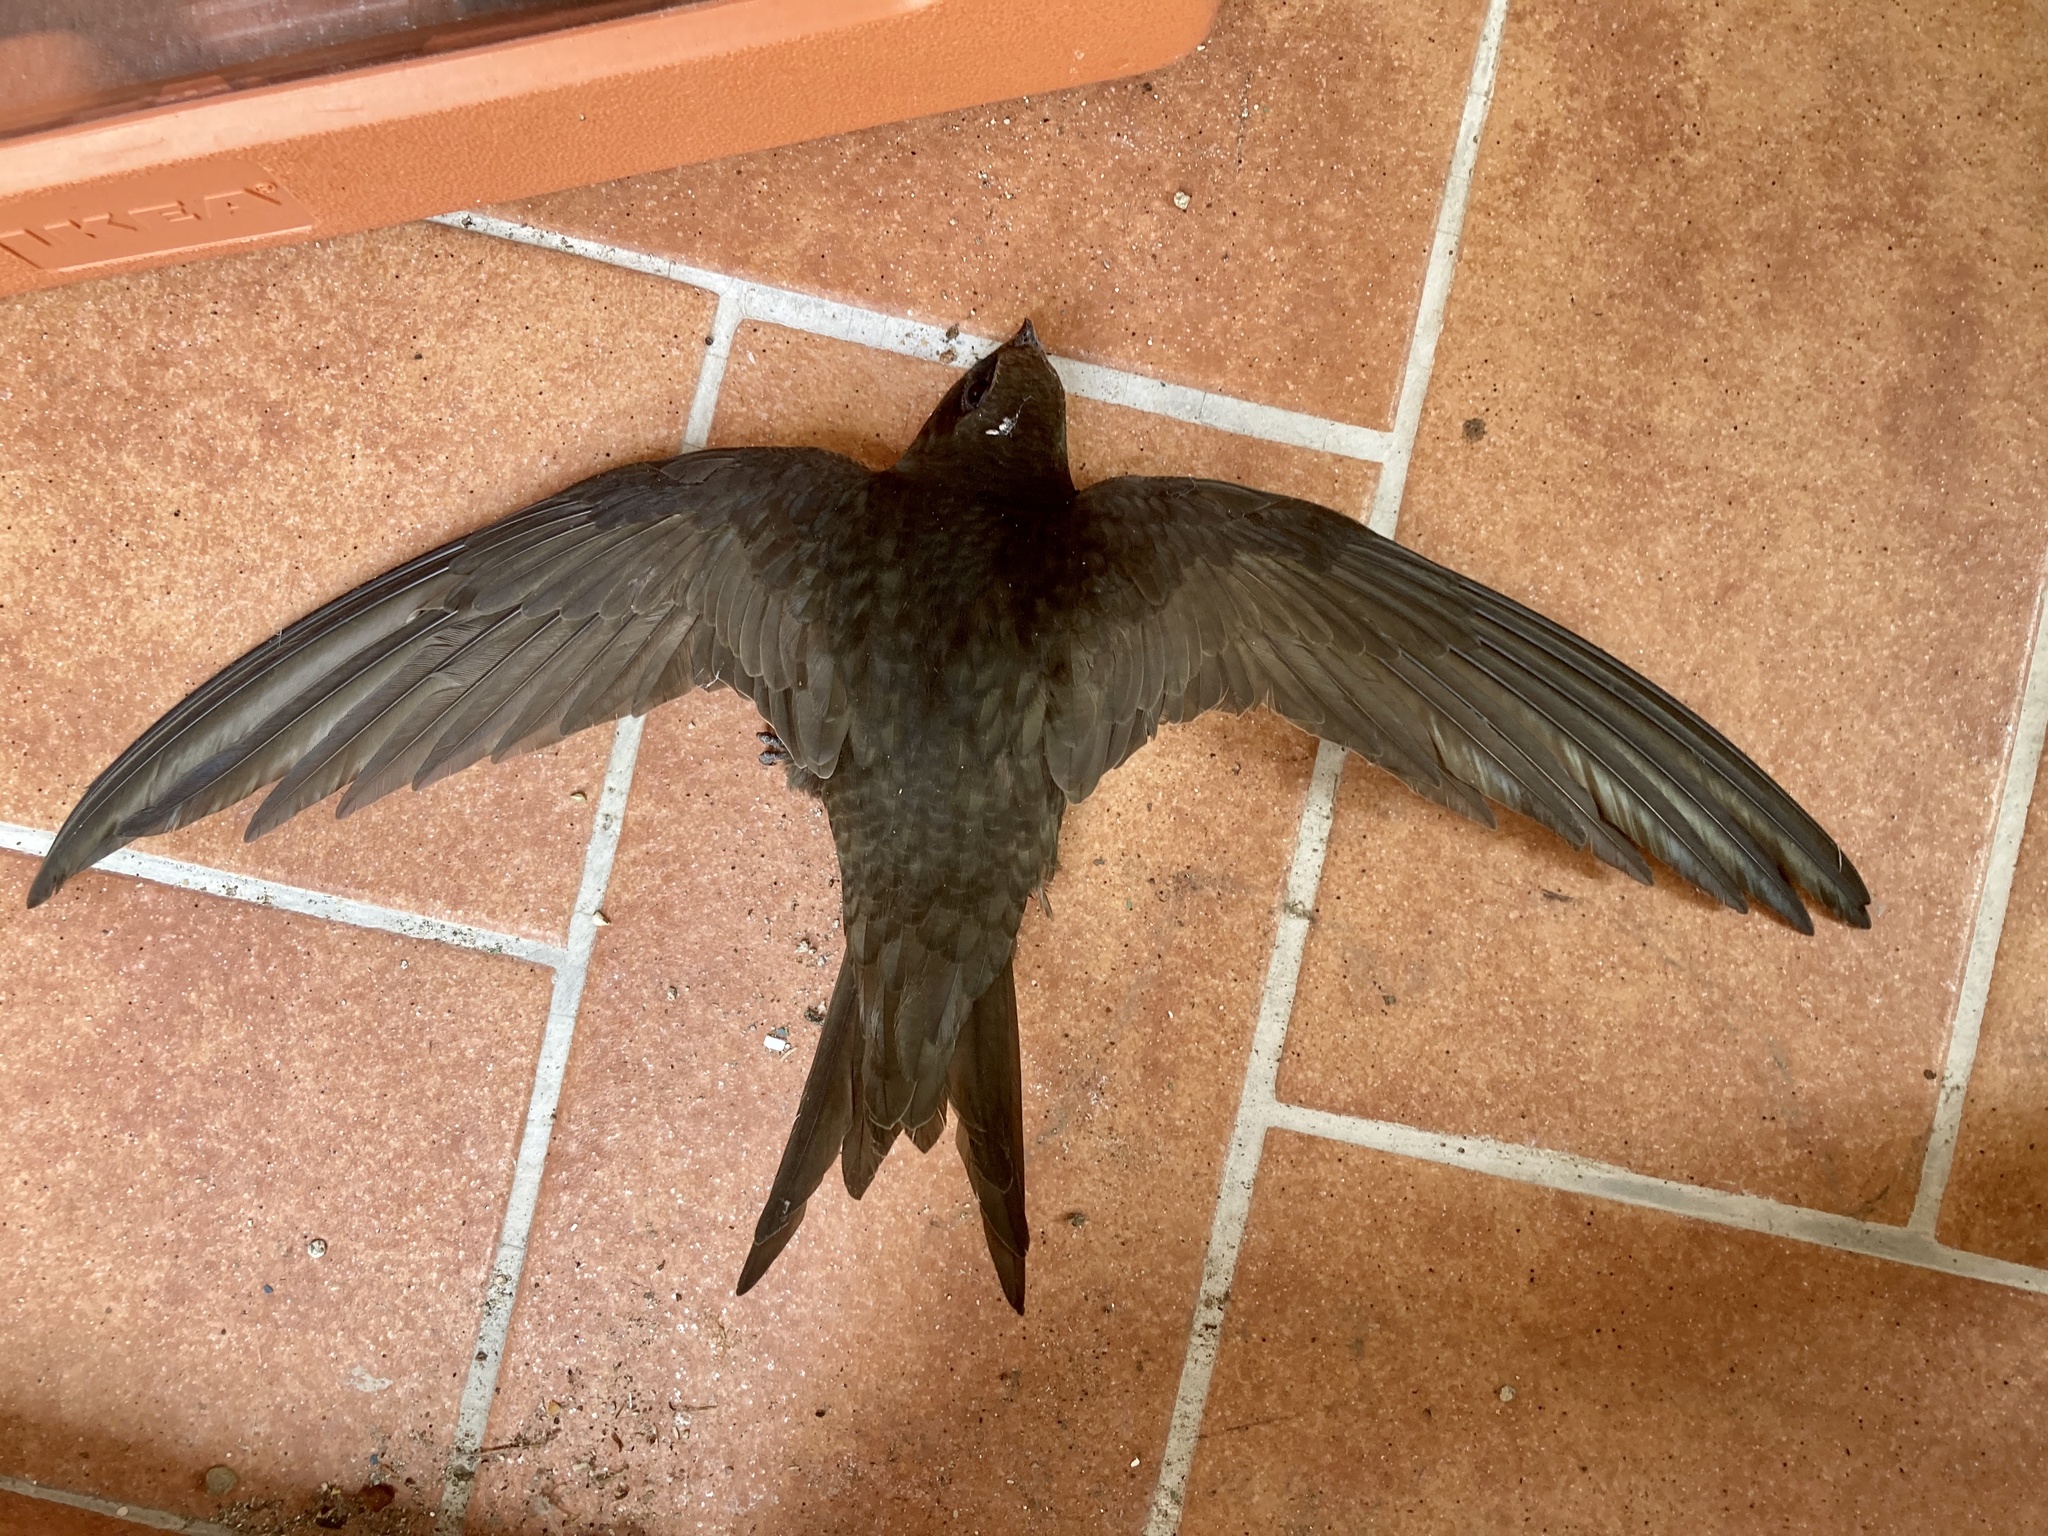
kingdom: Animalia
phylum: Chordata
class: Aves
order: Apodiformes
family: Apodidae
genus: Apus
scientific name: Apus apus
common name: Common swift
